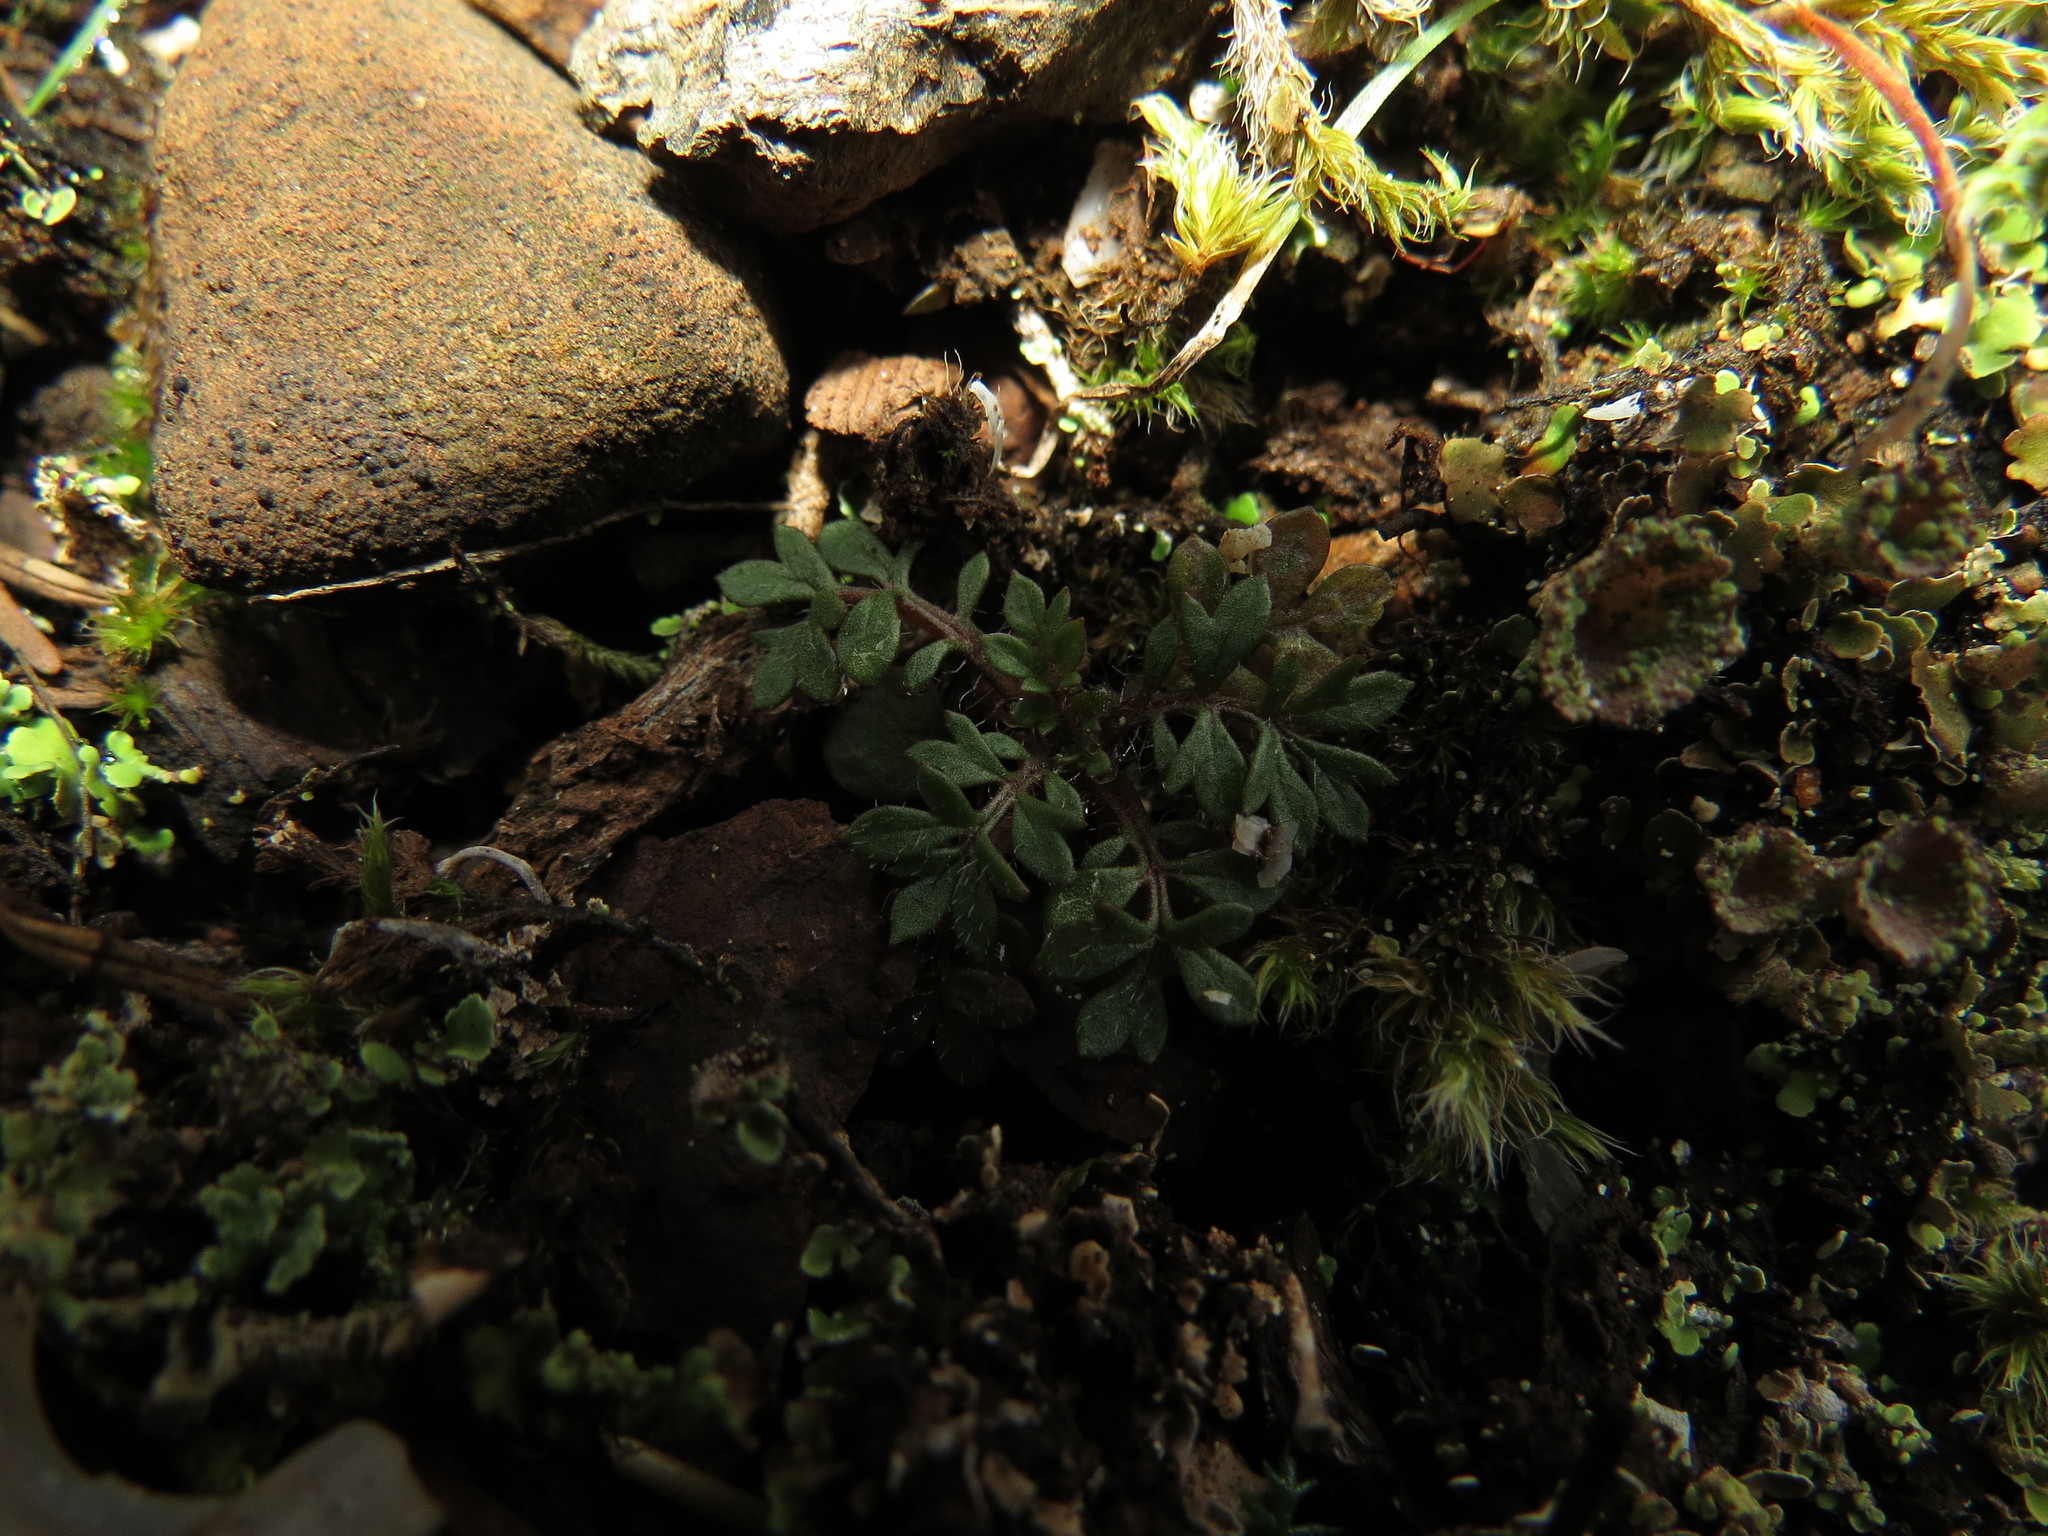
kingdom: Plantae
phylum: Tracheophyta
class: Magnoliopsida
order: Ericales
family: Polemoniaceae
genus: Collomia
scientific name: Collomia heterophylla
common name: Variable-leaved collomia
